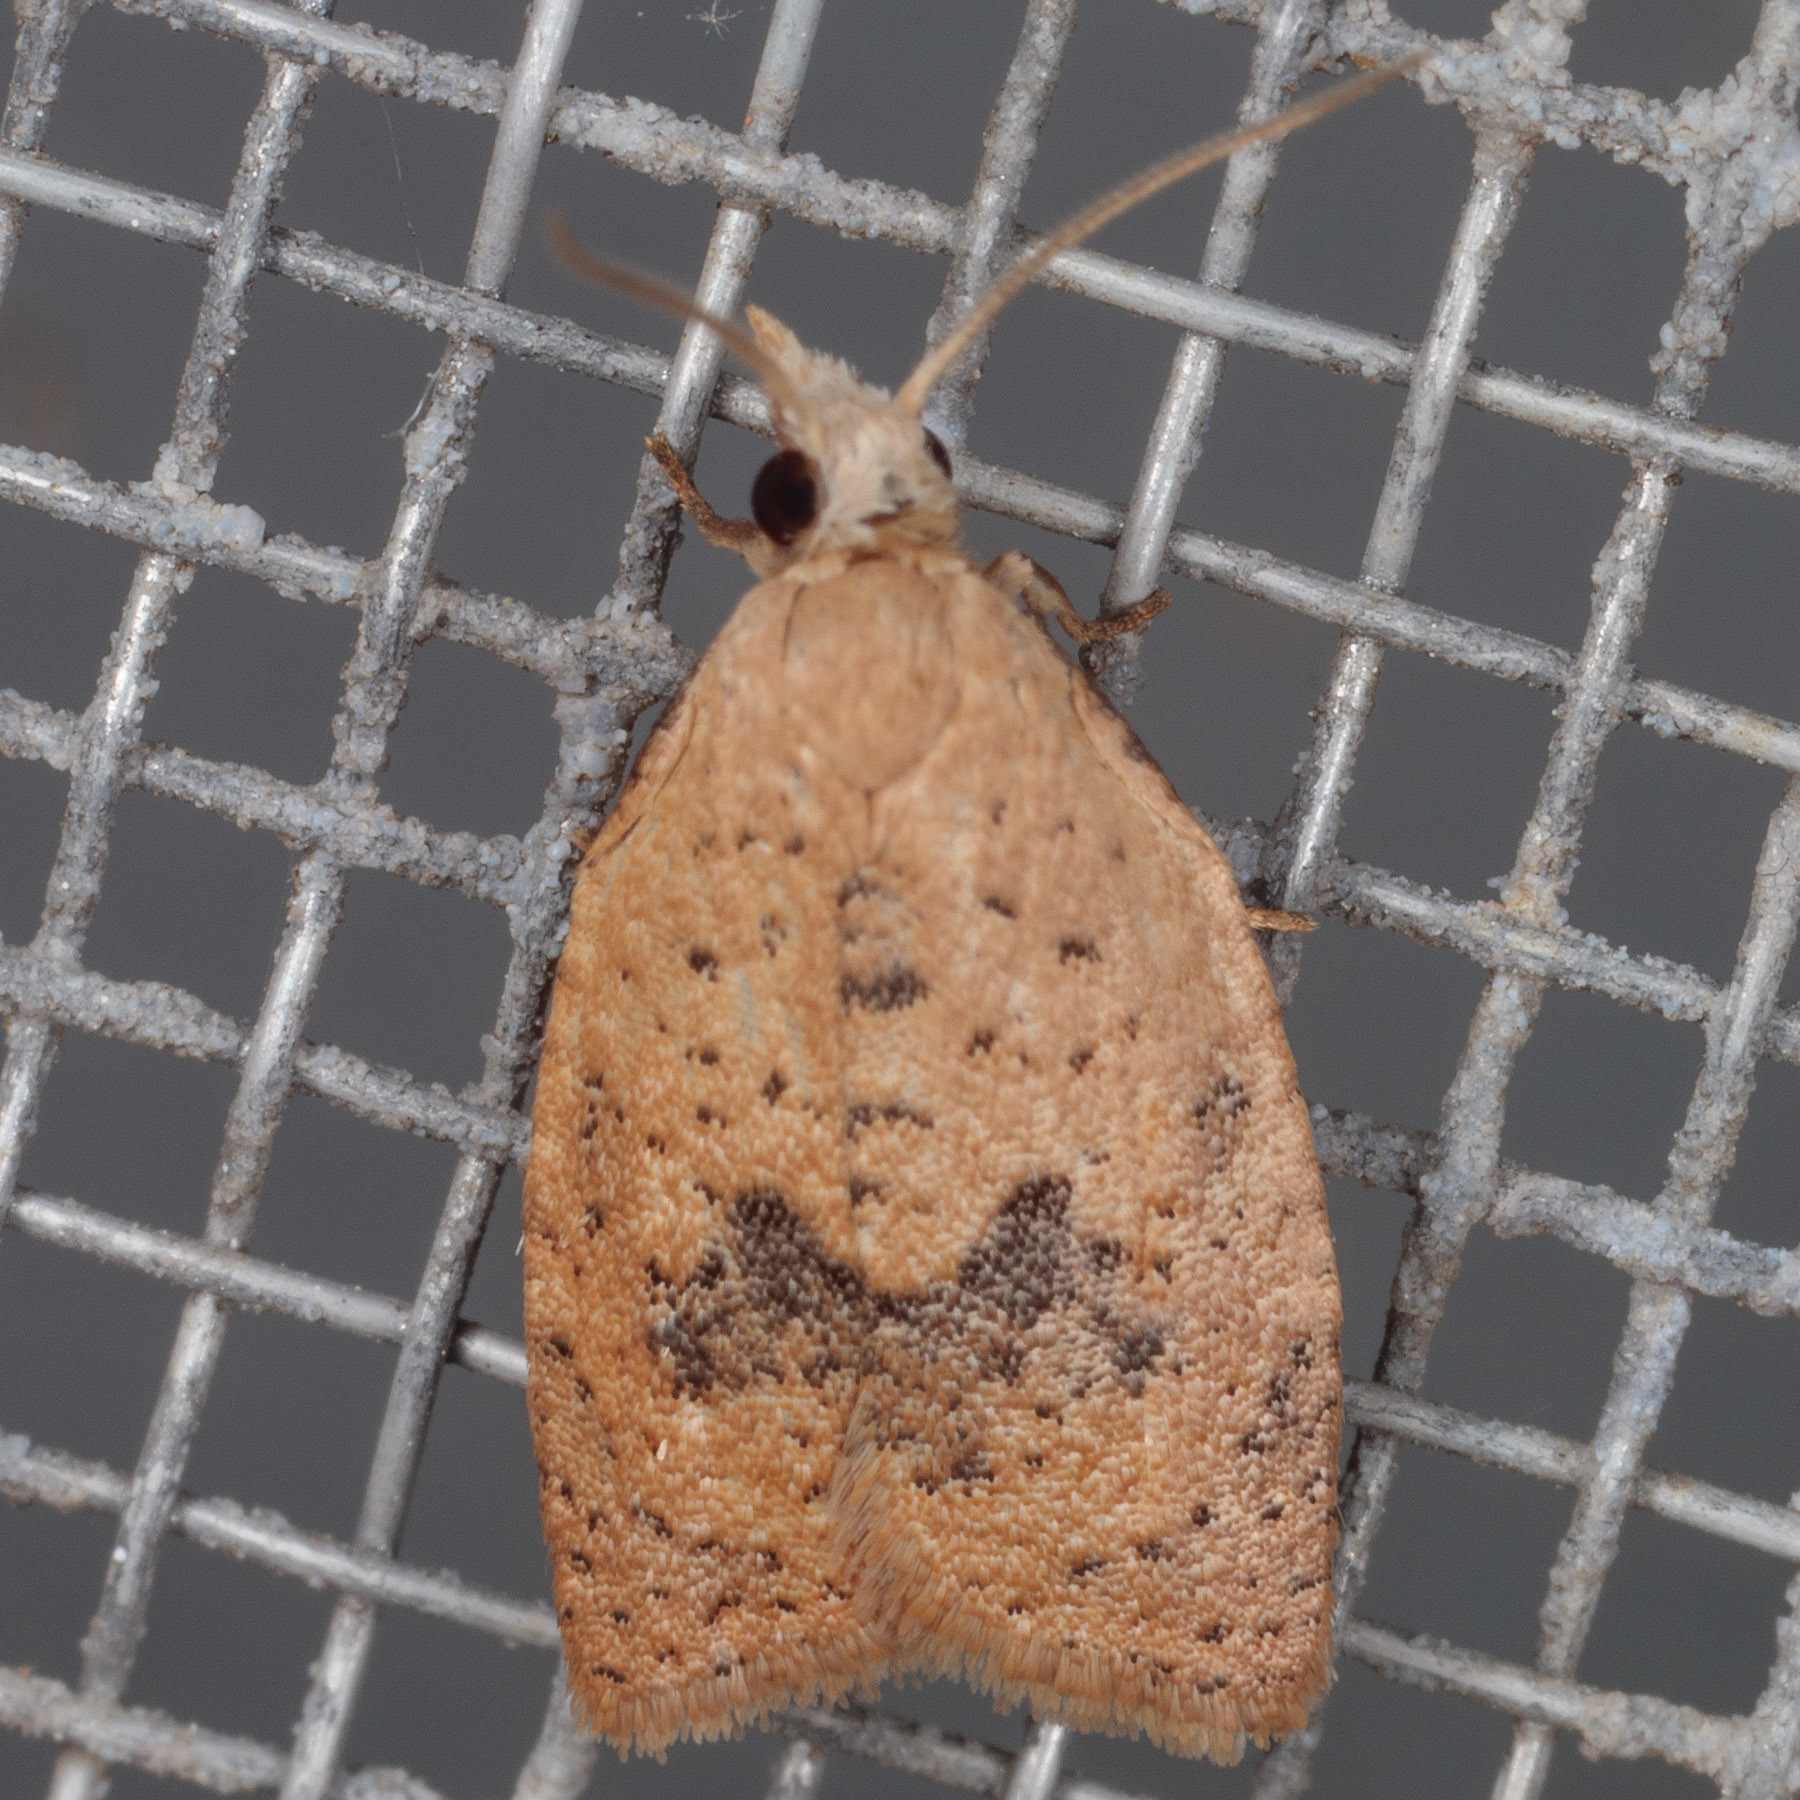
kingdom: Animalia
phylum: Arthropoda
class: Insecta
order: Lepidoptera
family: Tortricidae
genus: Sparganothoides
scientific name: Sparganothoides lentiginosana
